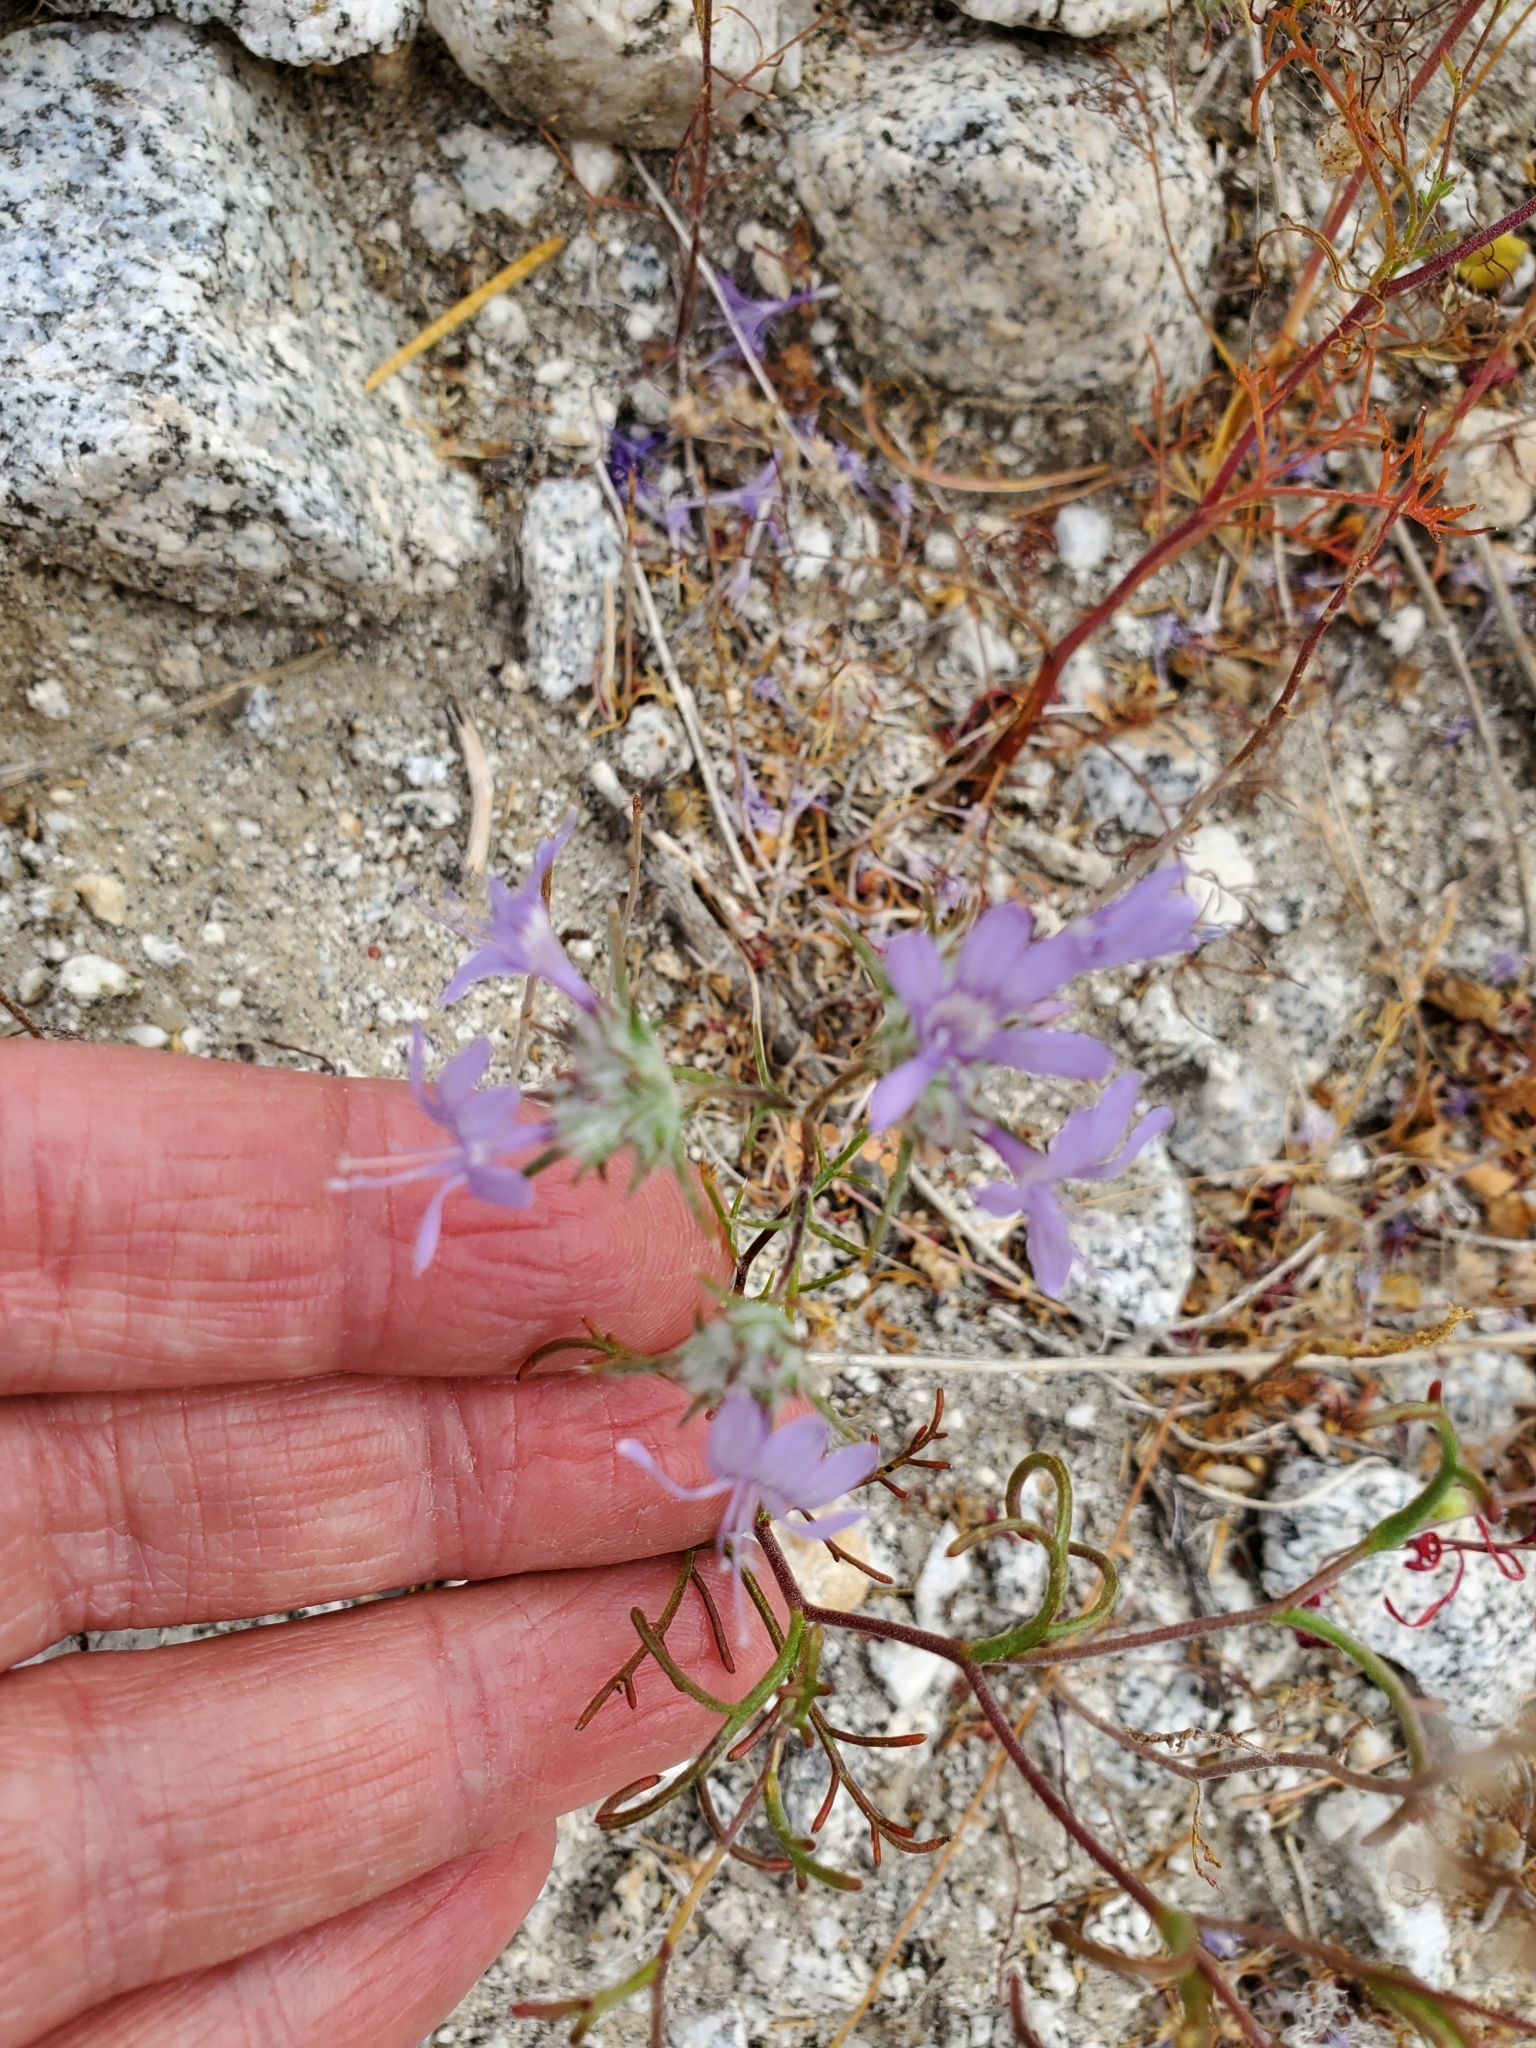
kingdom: Plantae
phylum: Tracheophyta
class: Magnoliopsida
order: Ericales
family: Polemoniaceae
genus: Eriastrum
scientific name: Eriastrum eremicum
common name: Desert eriastrum
